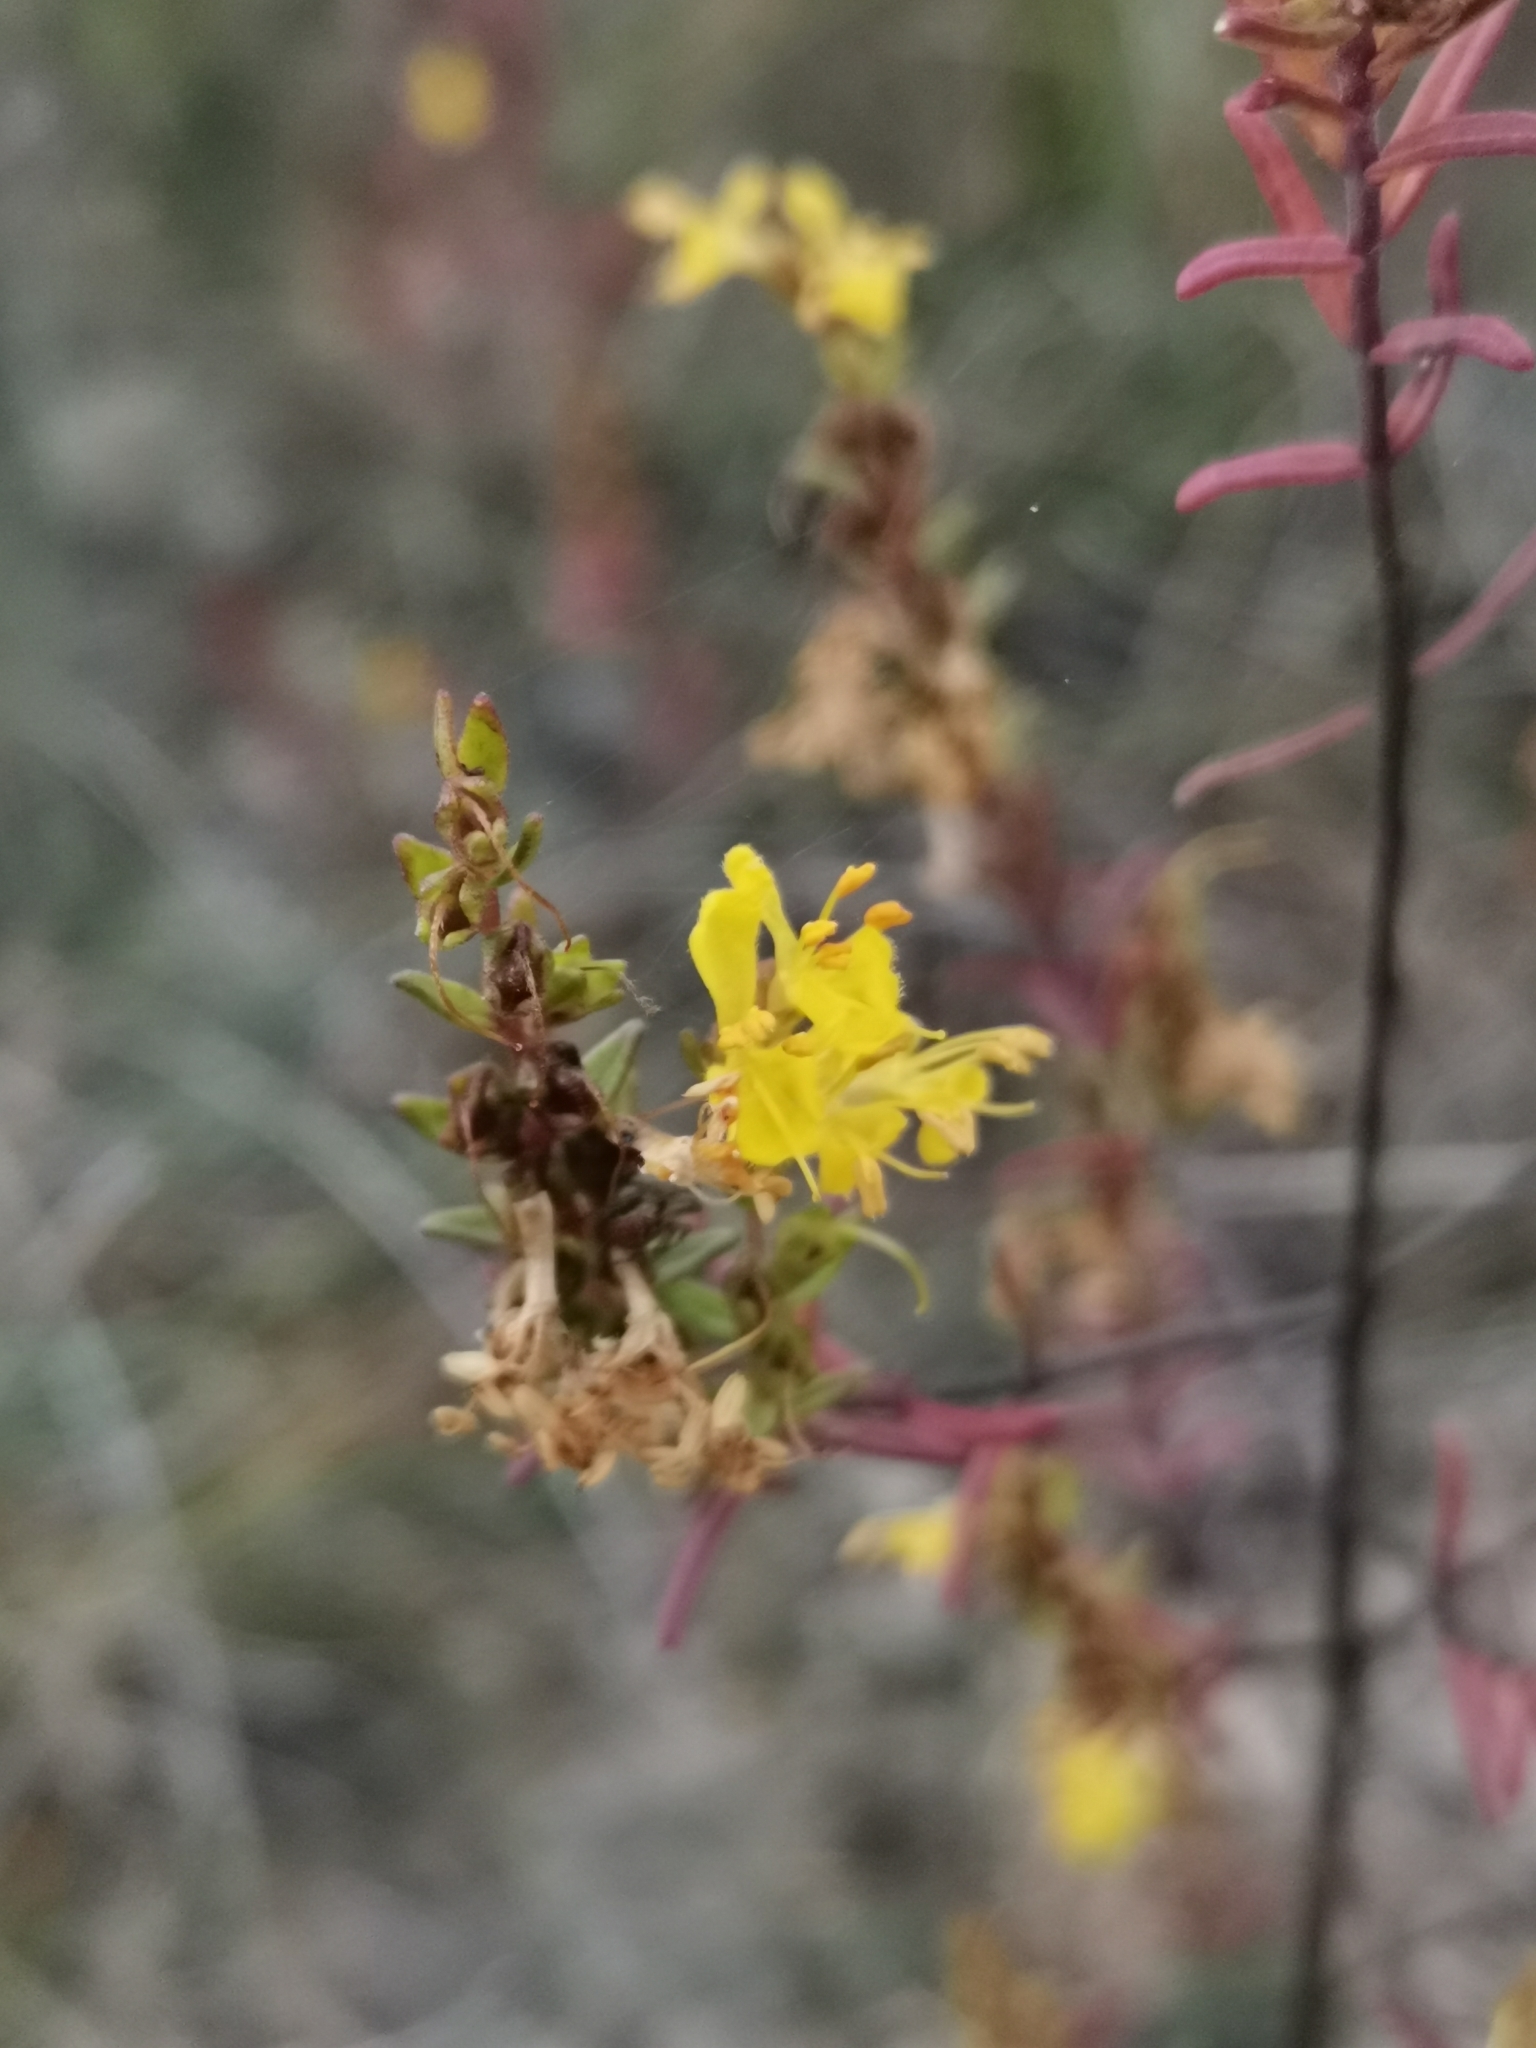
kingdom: Plantae
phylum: Tracheophyta
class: Magnoliopsida
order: Lamiales
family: Orobanchaceae
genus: Odontites
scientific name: Odontites luteus
